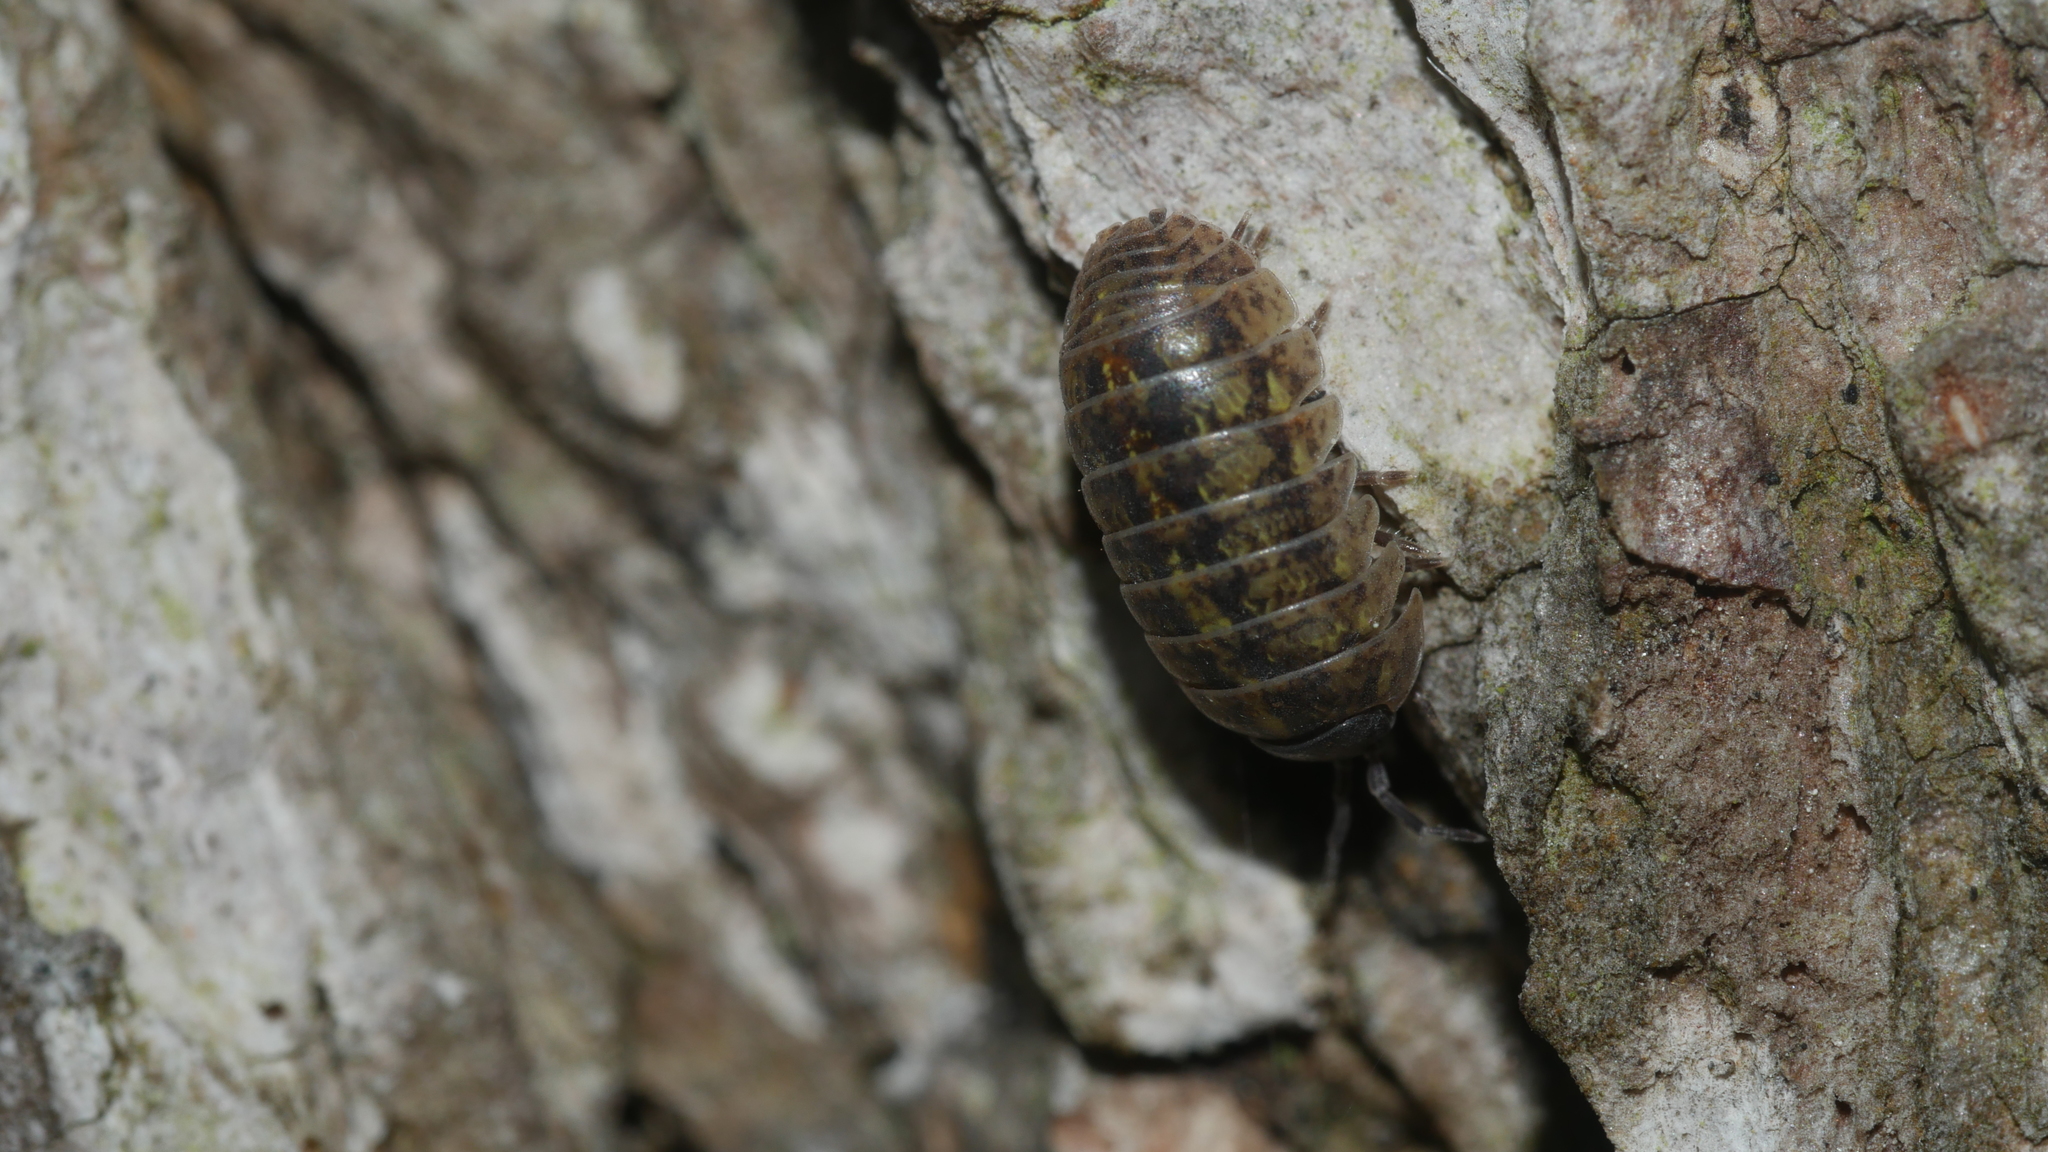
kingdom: Animalia
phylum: Arthropoda
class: Malacostraca
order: Isopoda
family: Armadillidiidae
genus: Armadillidium
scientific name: Armadillidium vulgare
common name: Common pill woodlouse
